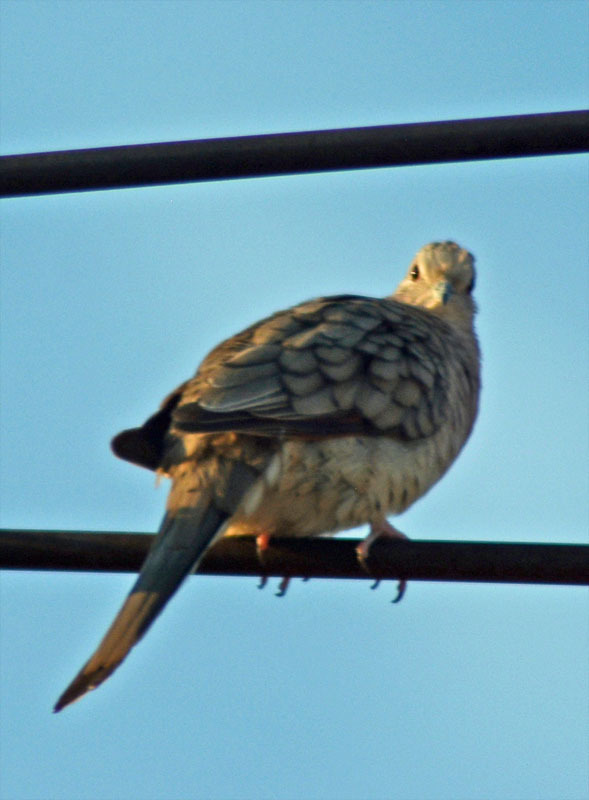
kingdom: Animalia
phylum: Chordata
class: Aves
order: Columbiformes
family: Columbidae
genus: Columbina
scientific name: Columbina inca
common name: Inca dove
